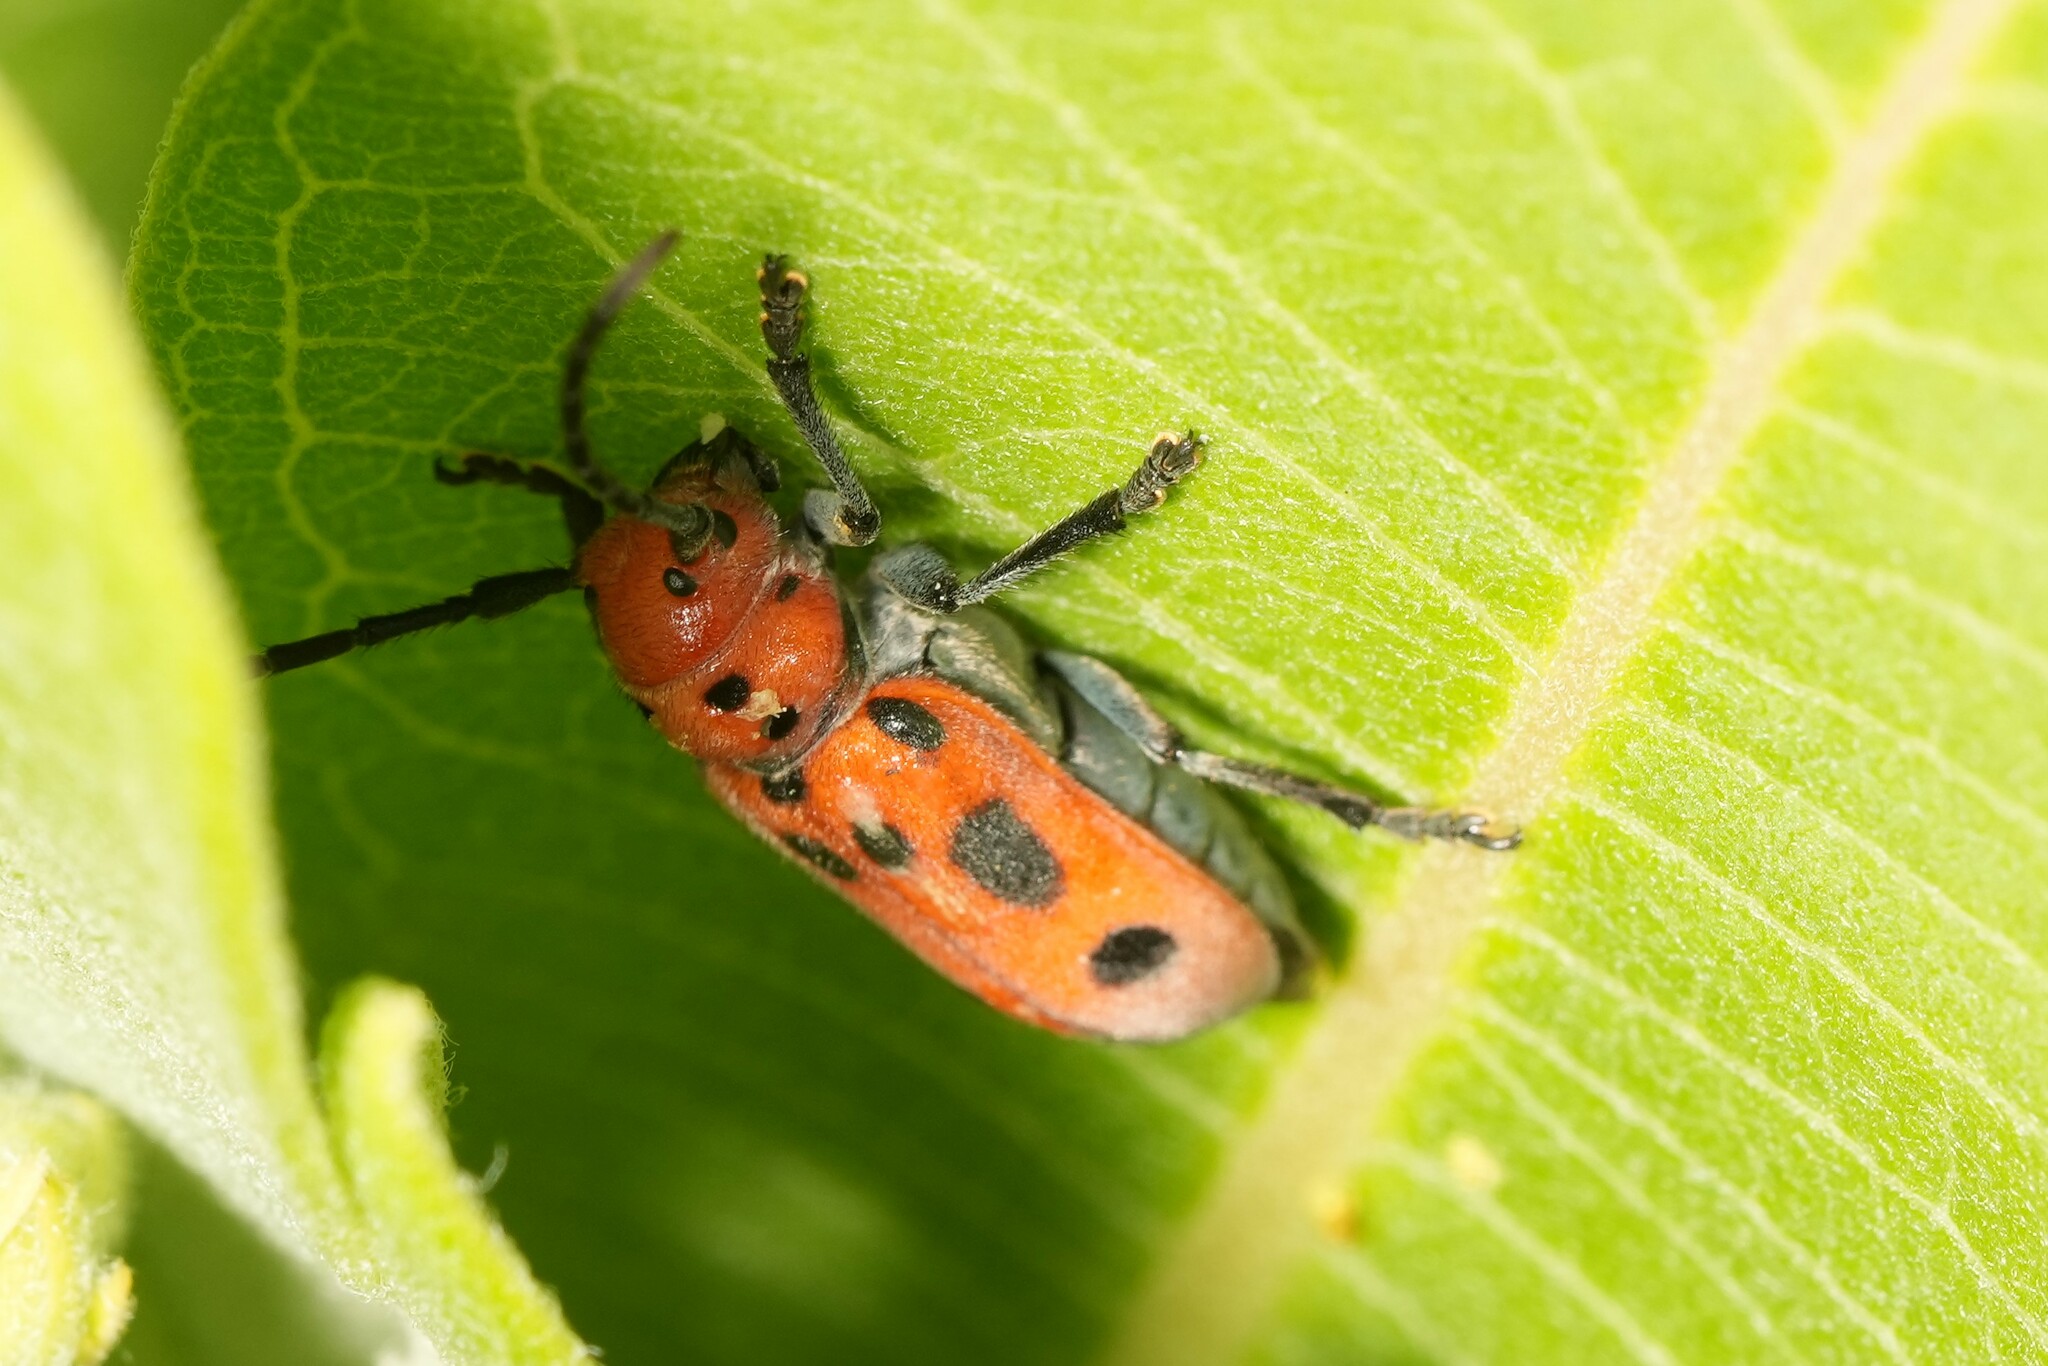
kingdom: Animalia
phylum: Arthropoda
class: Insecta
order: Coleoptera
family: Cerambycidae
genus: Tetraopes
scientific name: Tetraopes tetrophthalmus
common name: Red milkweed beetle
